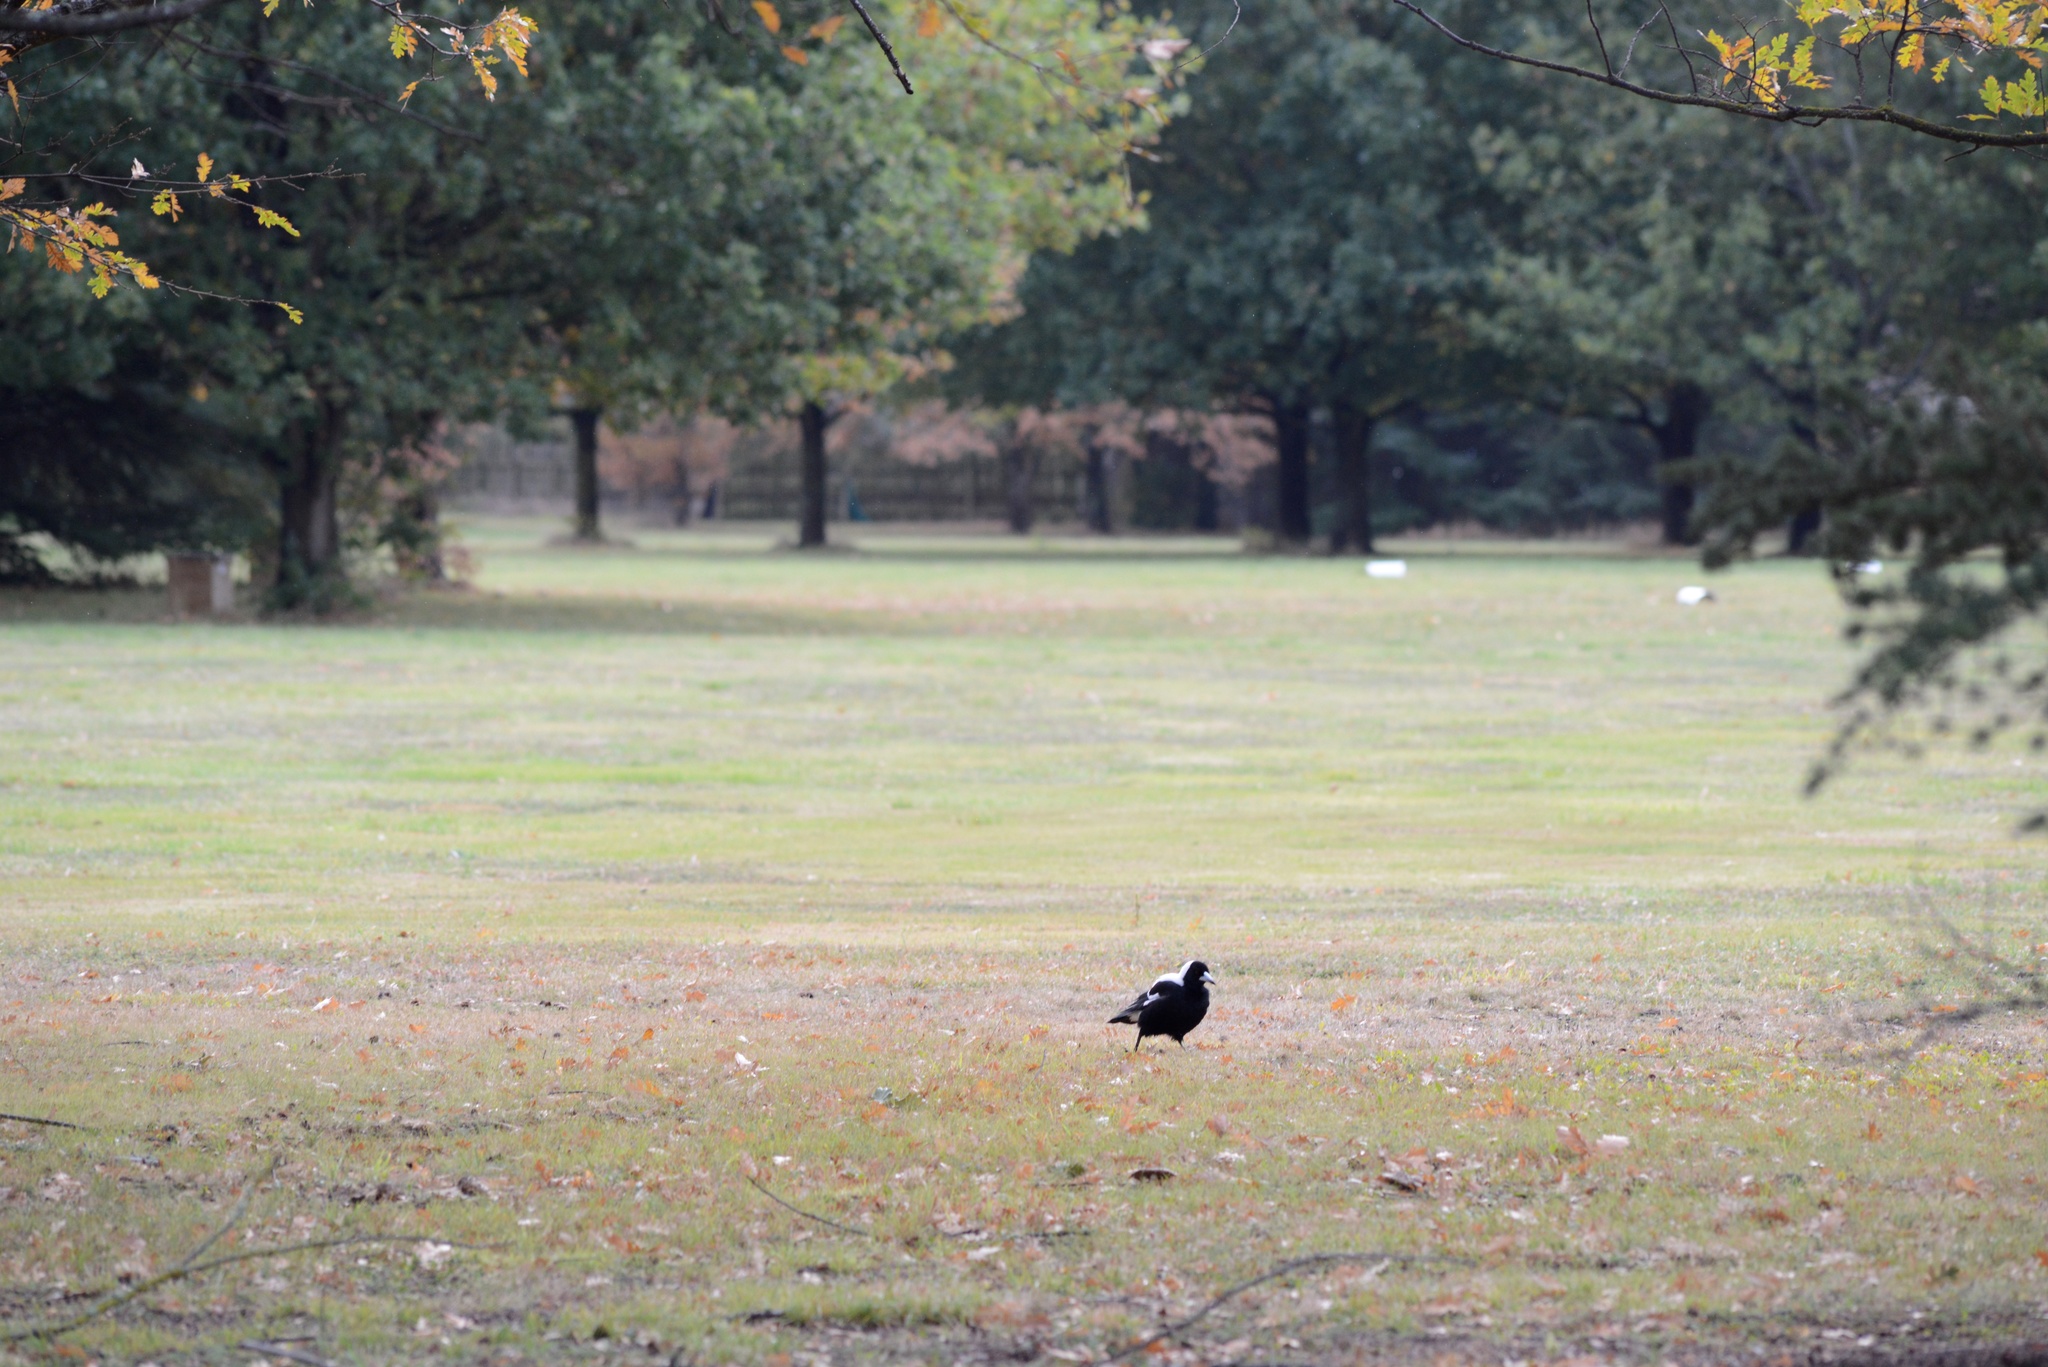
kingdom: Animalia
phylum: Chordata
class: Aves
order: Passeriformes
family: Cracticidae
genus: Gymnorhina
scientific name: Gymnorhina tibicen
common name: Australian magpie
